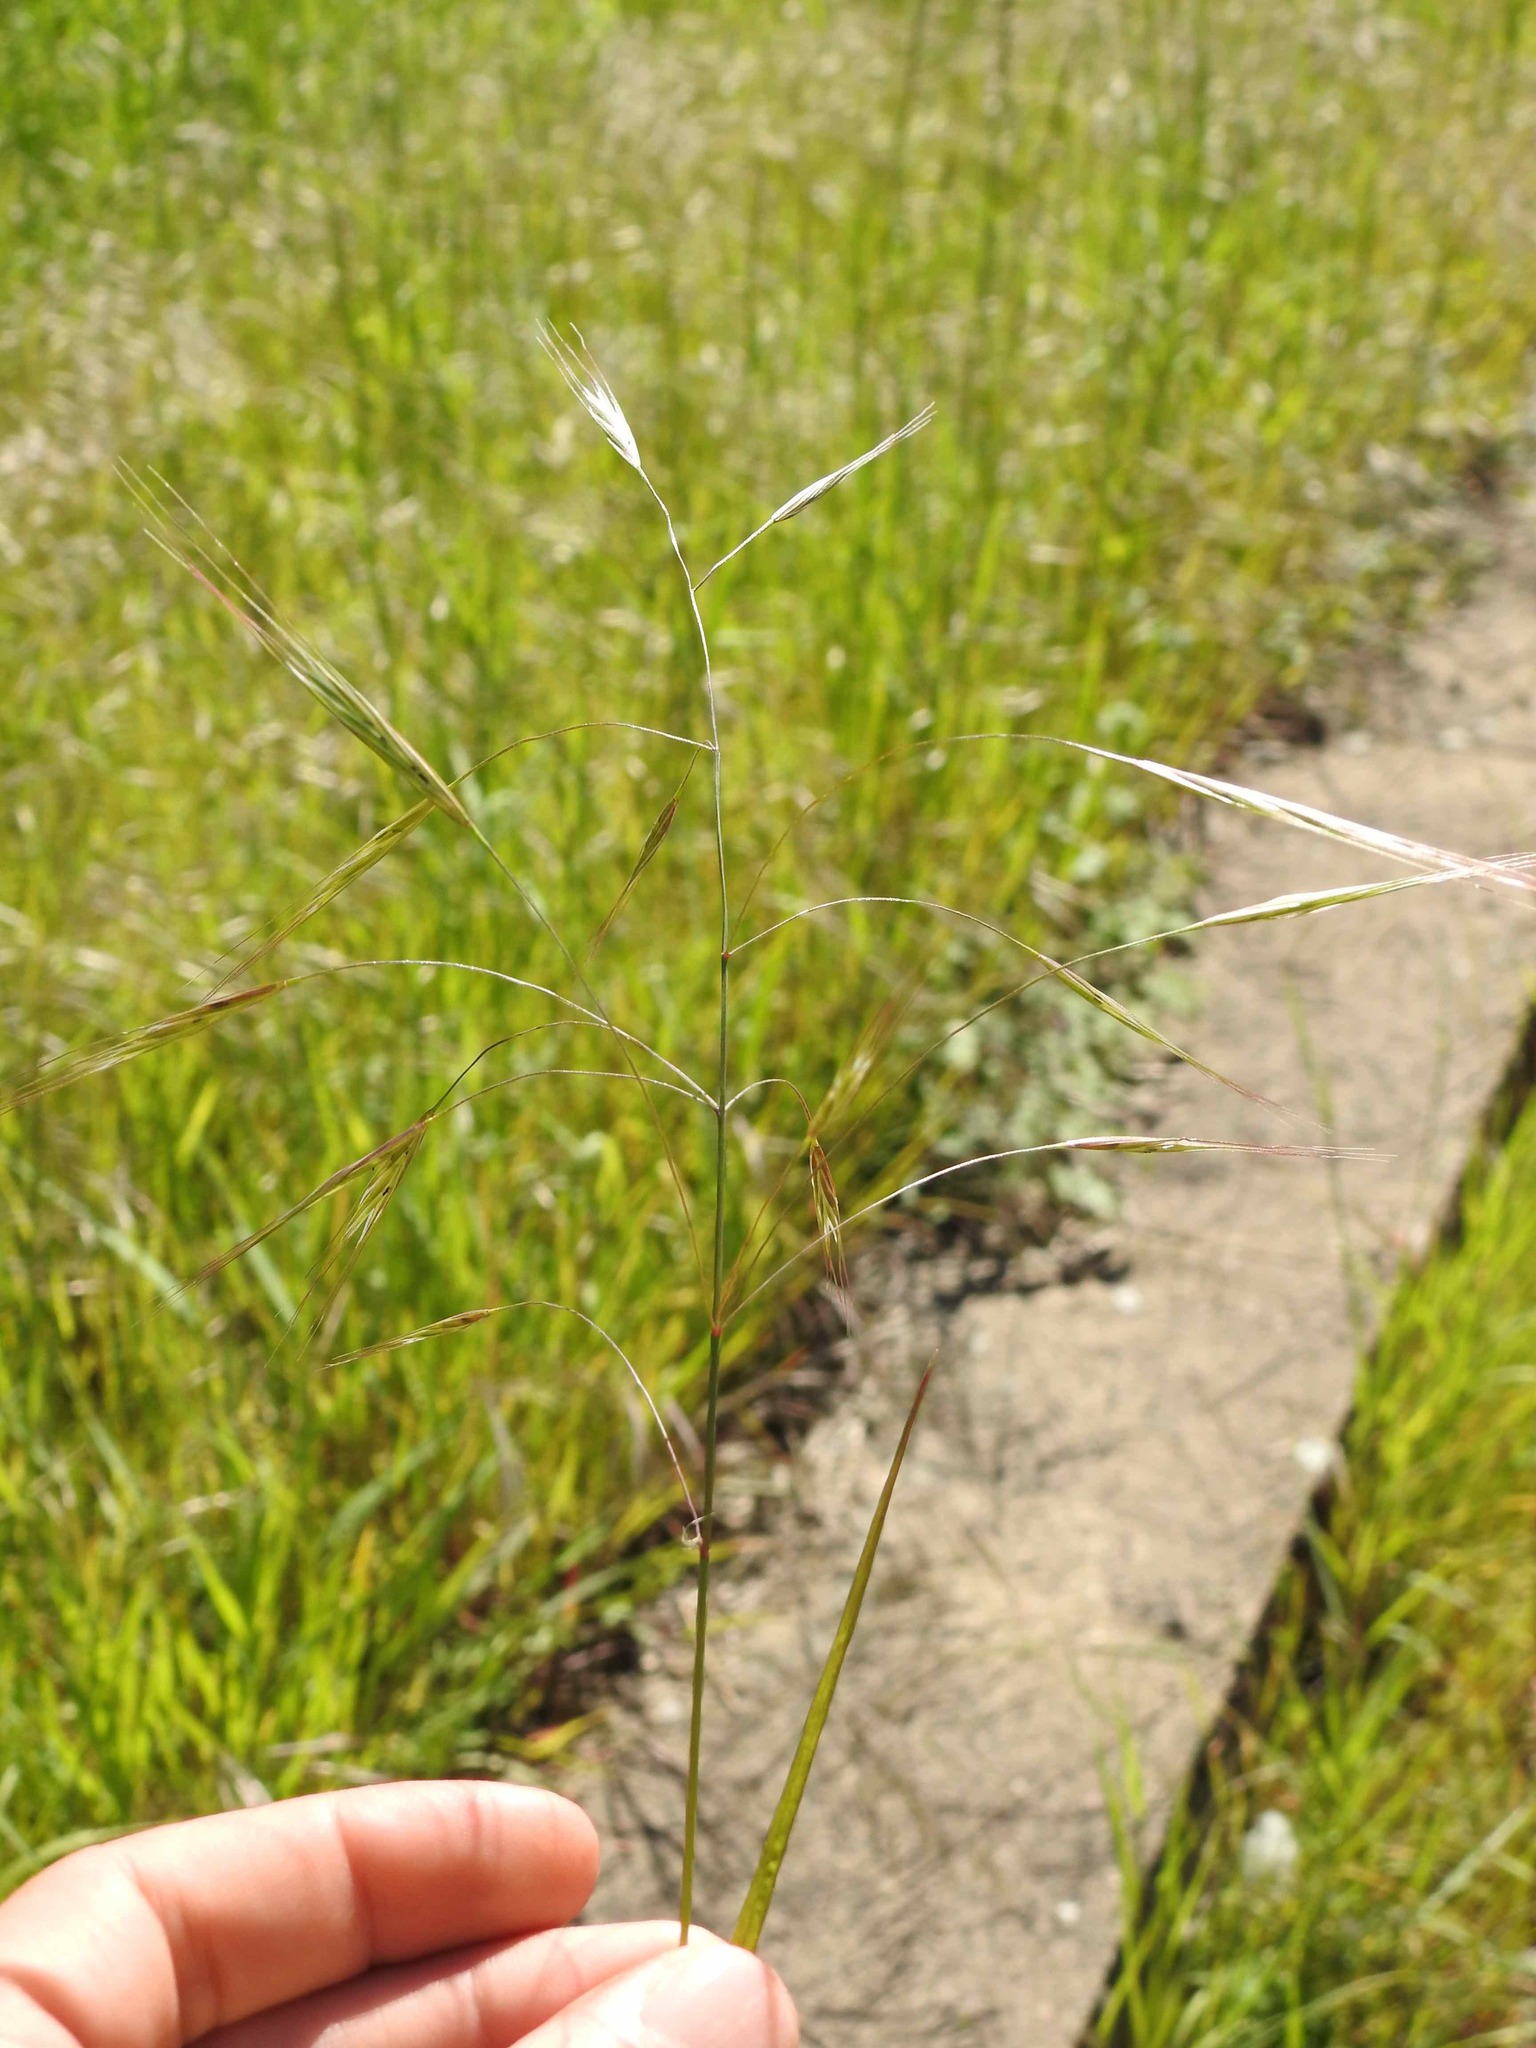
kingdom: Plantae
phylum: Tracheophyta
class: Liliopsida
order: Poales
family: Poaceae
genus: Bromus
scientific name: Bromus sterilis
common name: Poverty brome
